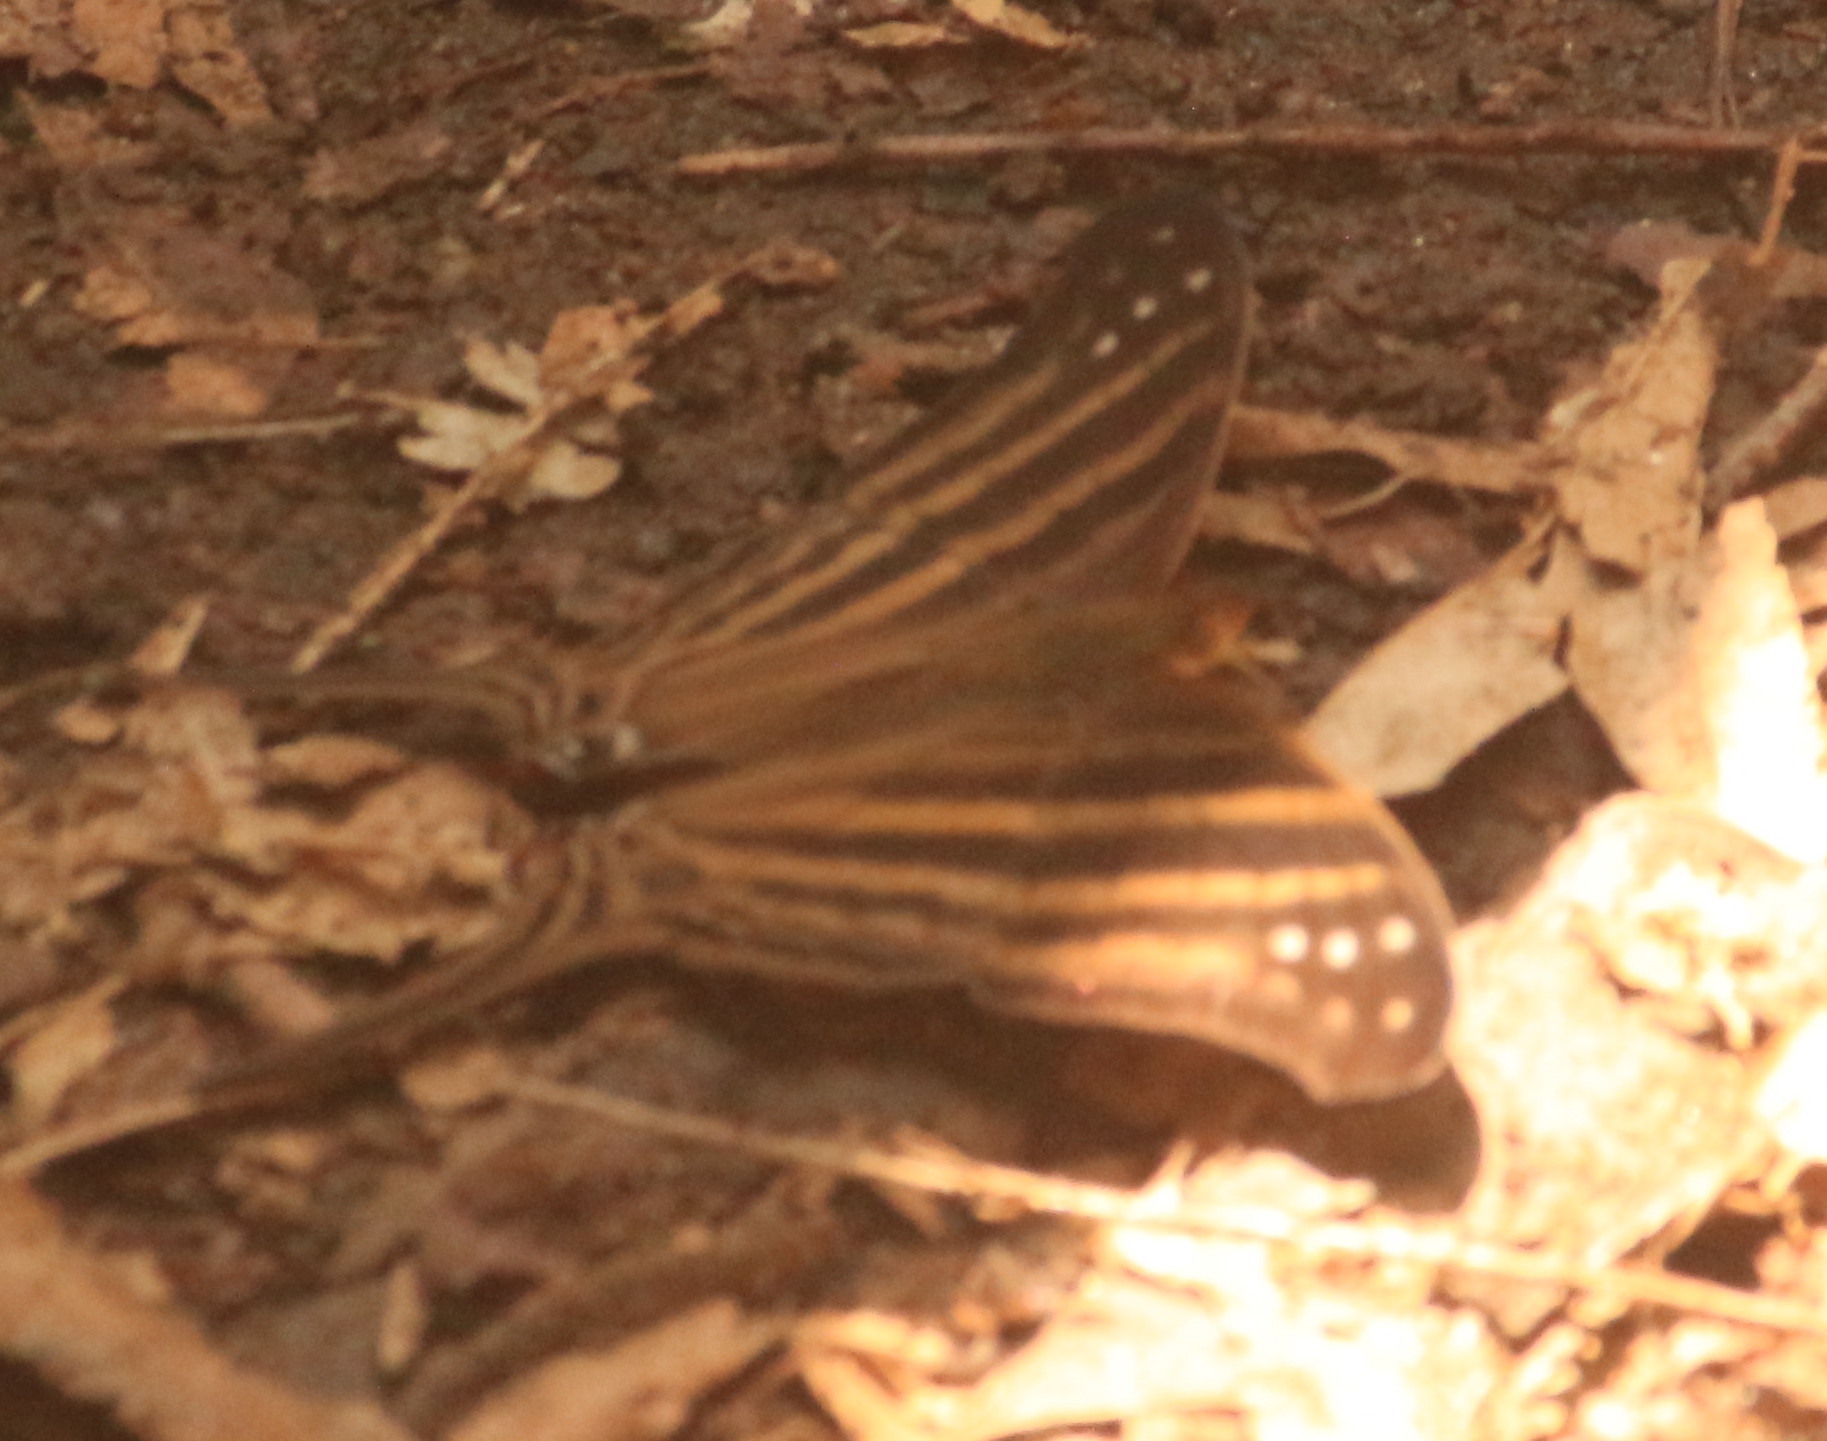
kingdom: Animalia
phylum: Arthropoda
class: Insecta
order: Lepidoptera
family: Nymphalidae
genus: Marpesia
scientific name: Marpesia chiron
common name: Many-banded daggerwing
